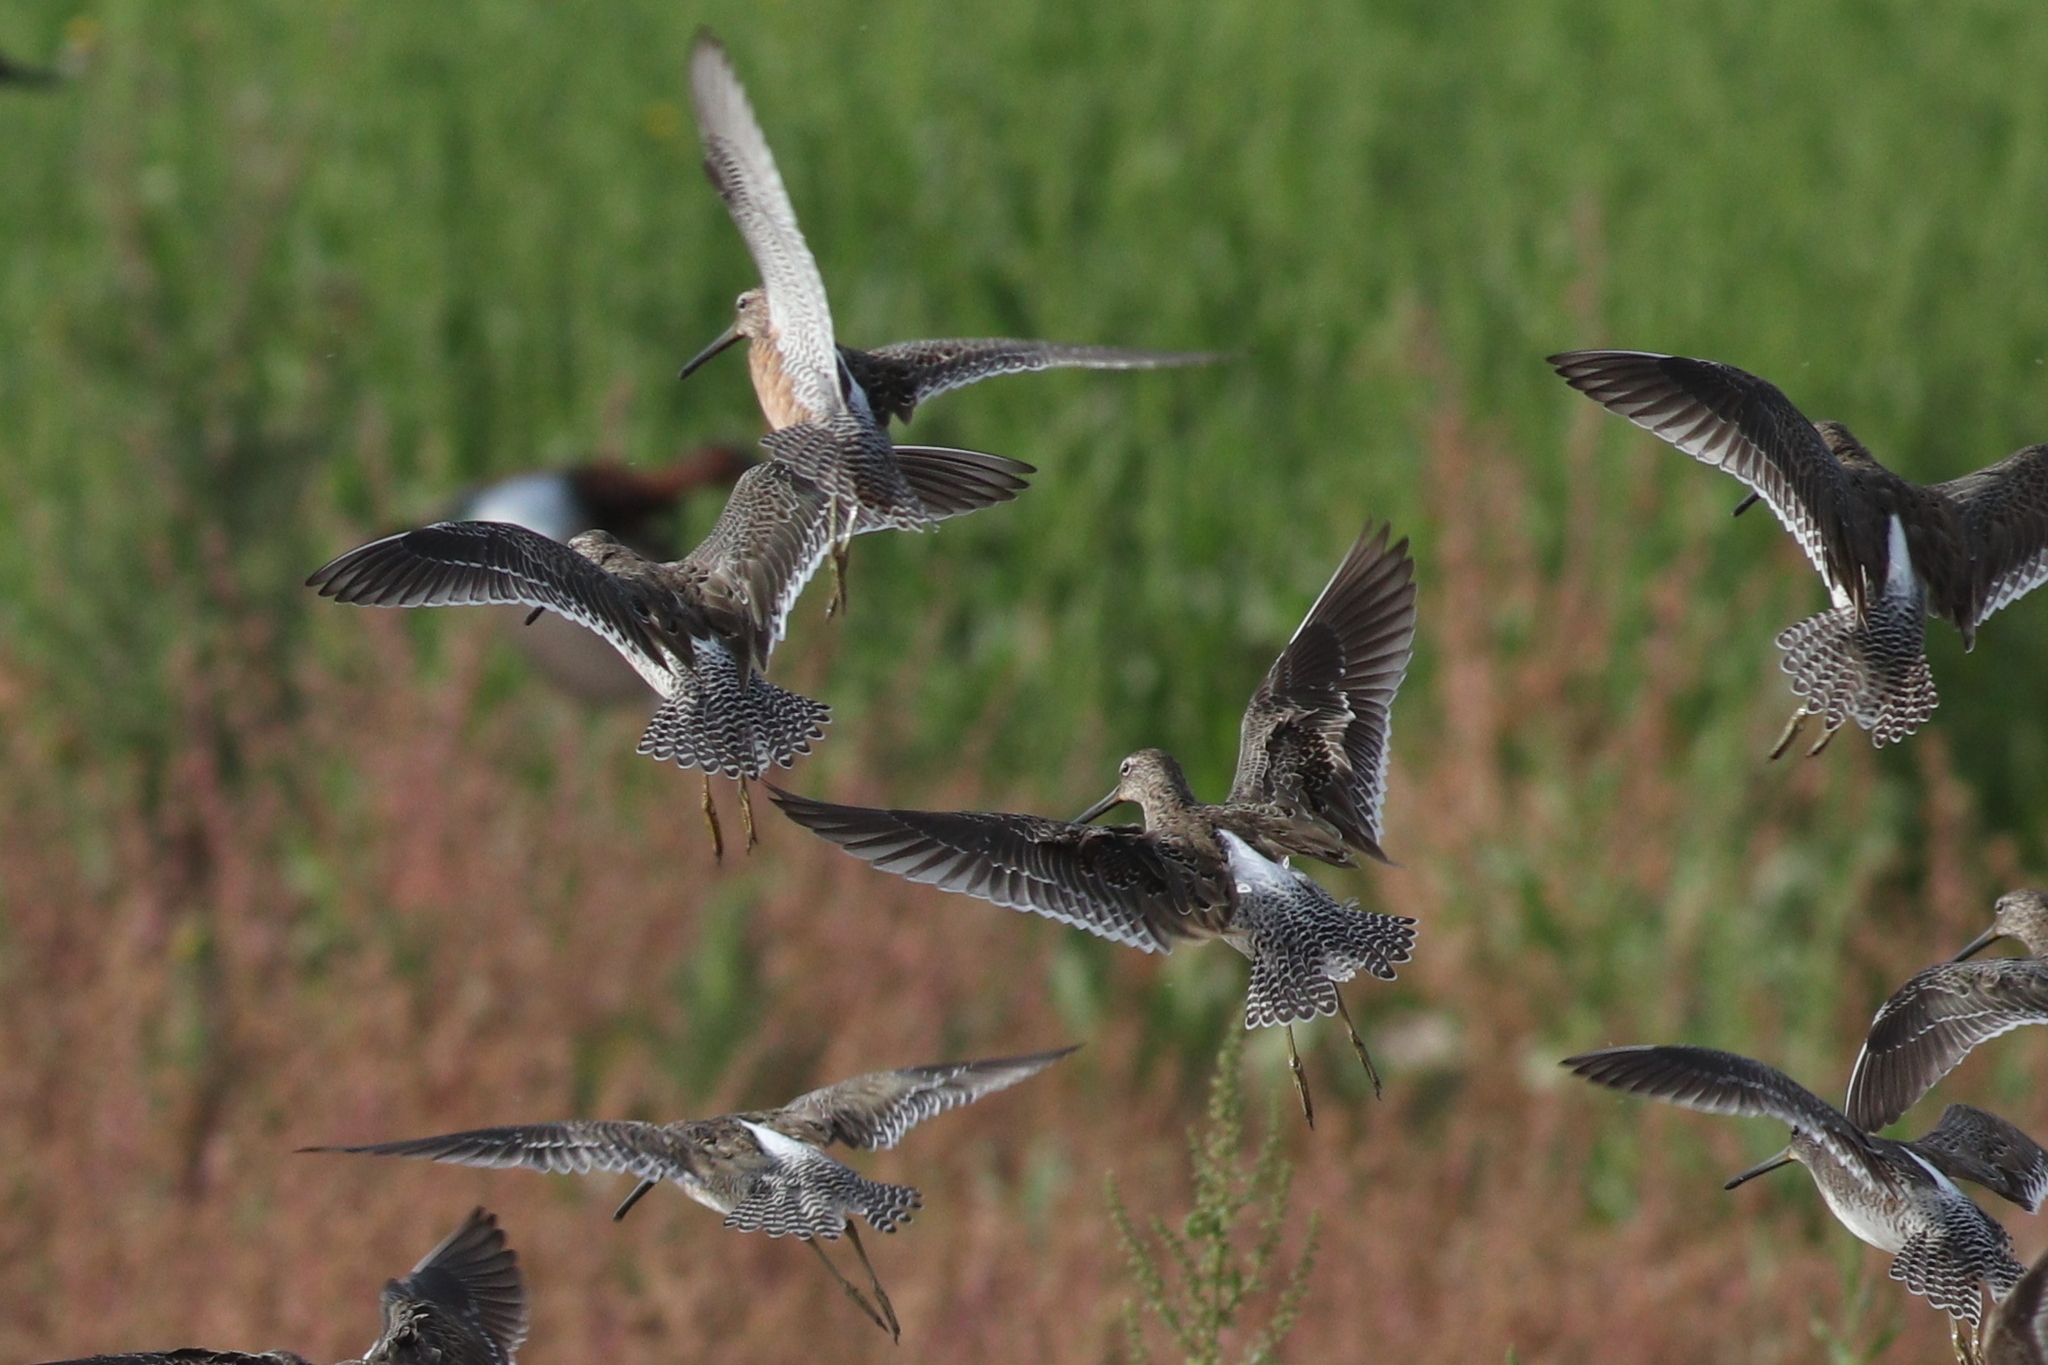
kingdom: Animalia
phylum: Chordata
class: Aves
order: Charadriiformes
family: Scolopacidae
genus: Limnodromus
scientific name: Limnodromus scolopaceus
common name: Long-billed dowitcher
